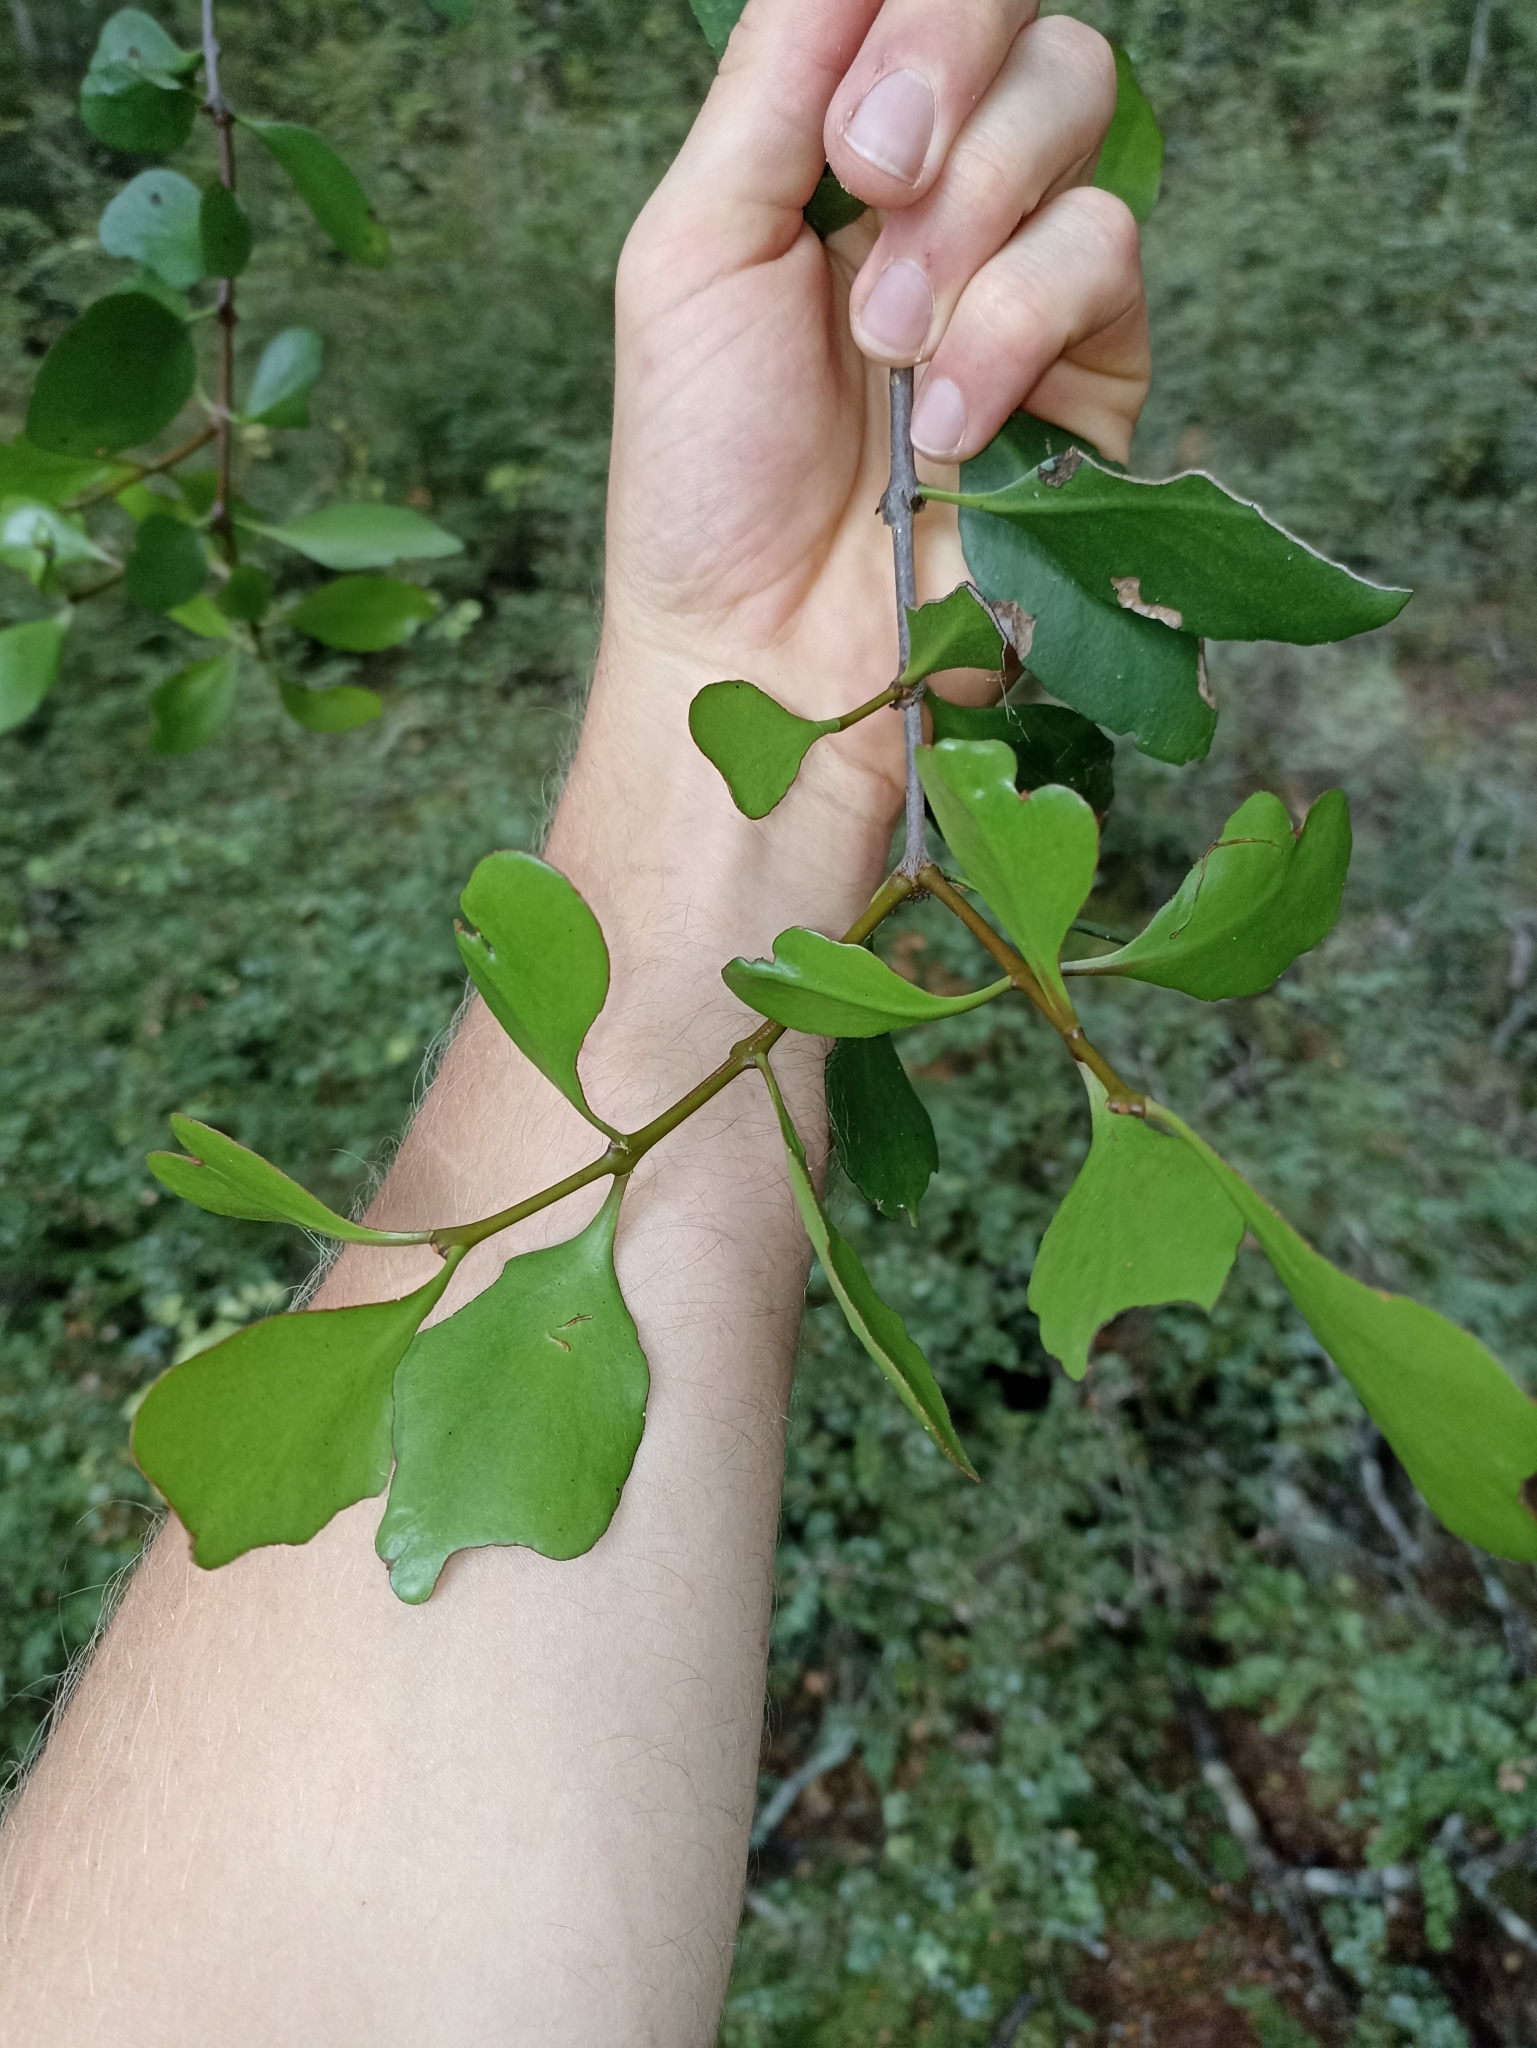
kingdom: Plantae
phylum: Tracheophyta
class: Magnoliopsida
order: Santalales
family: Loranthaceae
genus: Peraxilla
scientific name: Peraxilla colensoi
